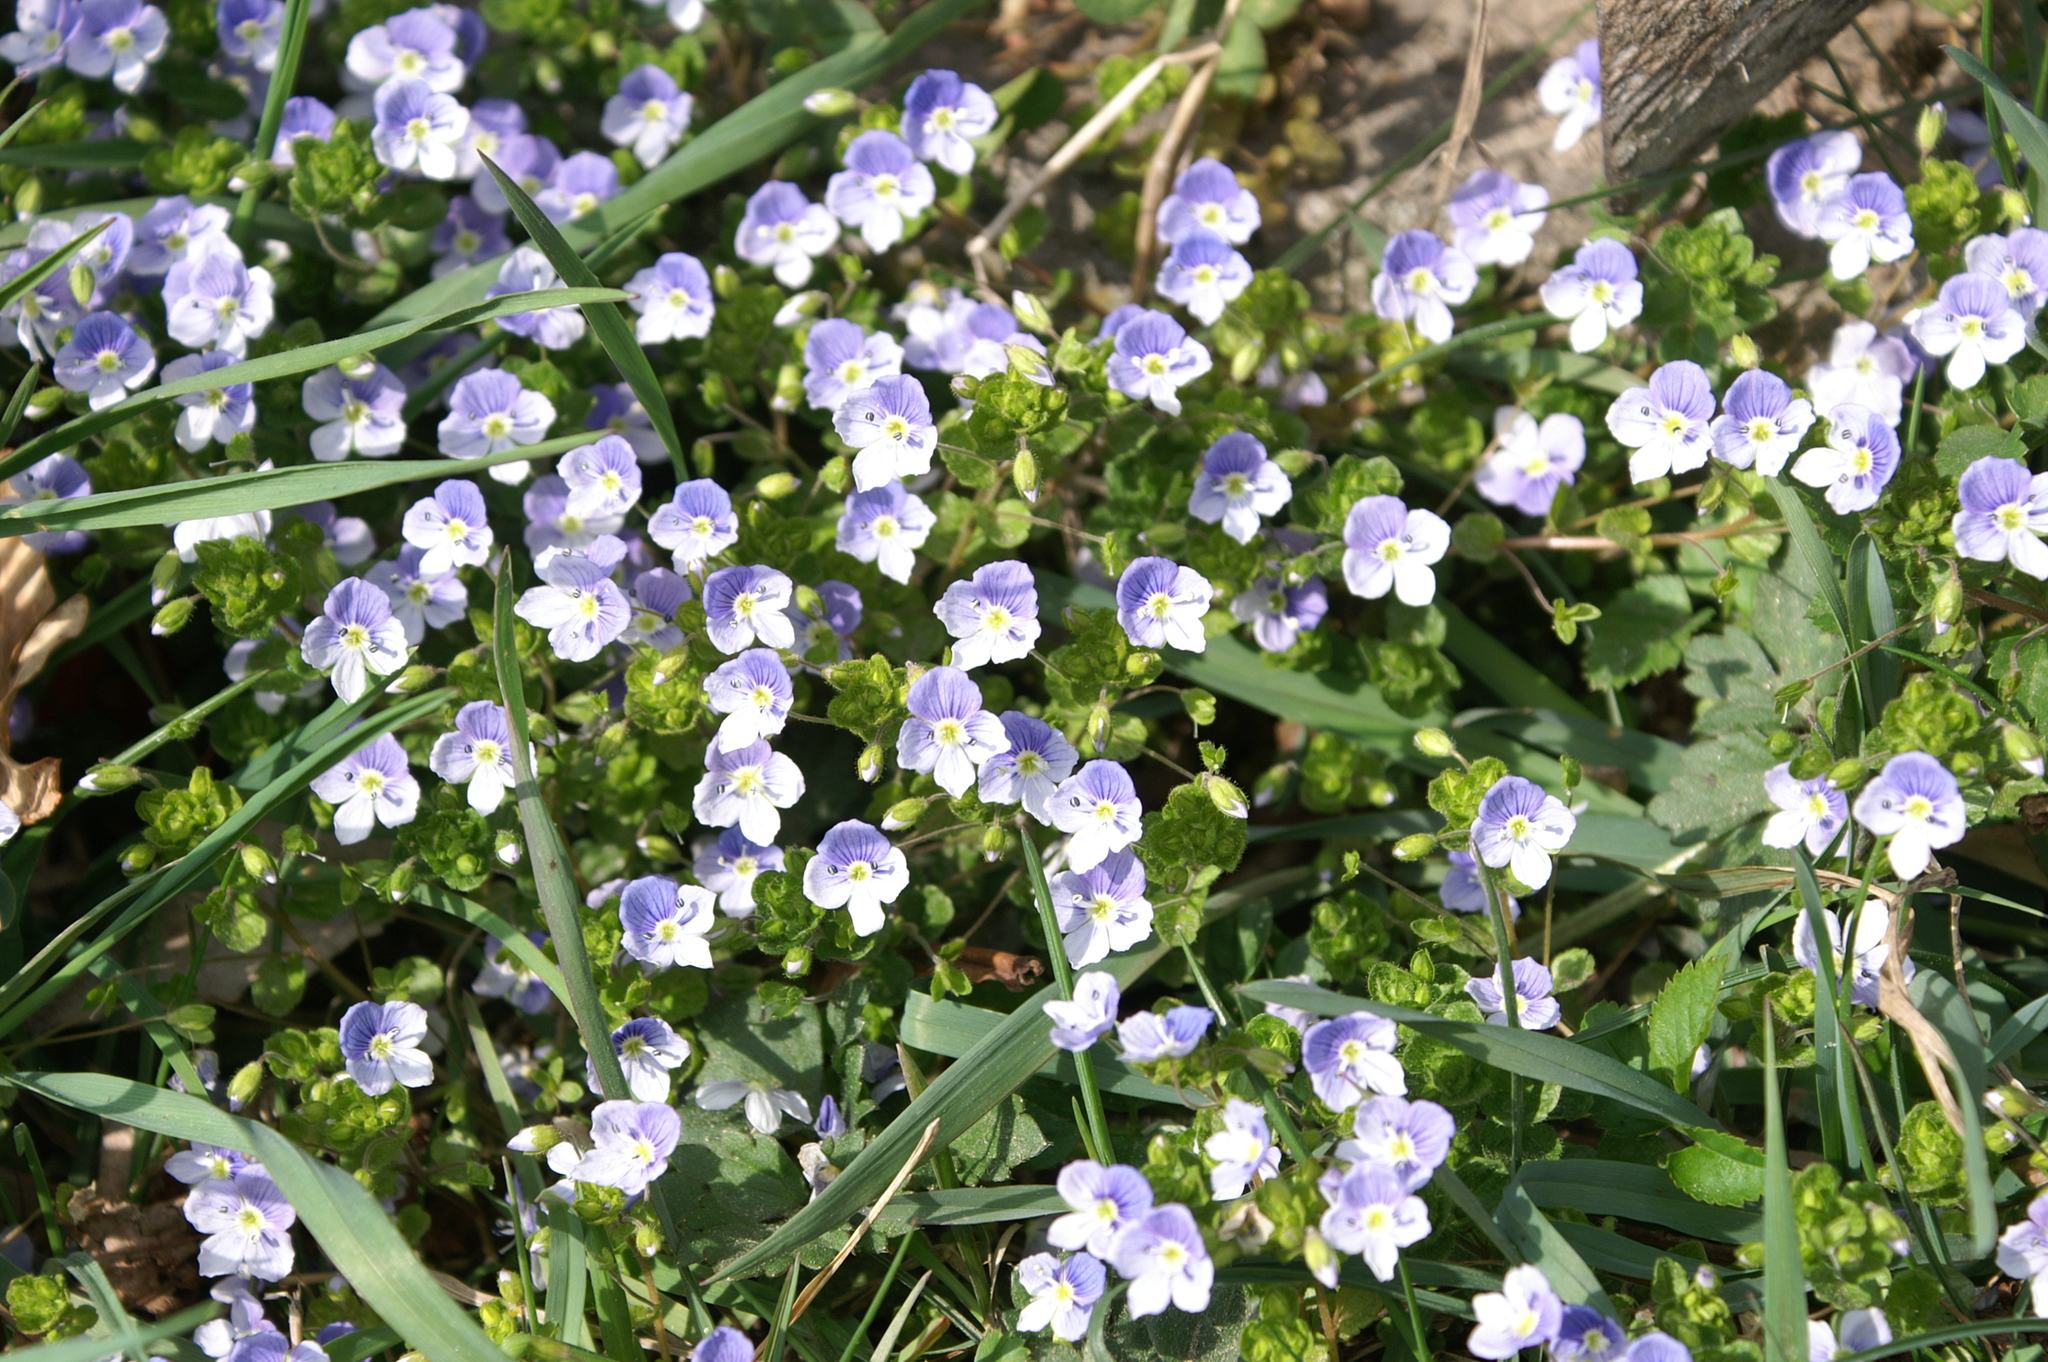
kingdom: Plantae
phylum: Tracheophyta
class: Magnoliopsida
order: Lamiales
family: Plantaginaceae
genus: Veronica
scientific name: Veronica filiformis
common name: Slender speedwell
